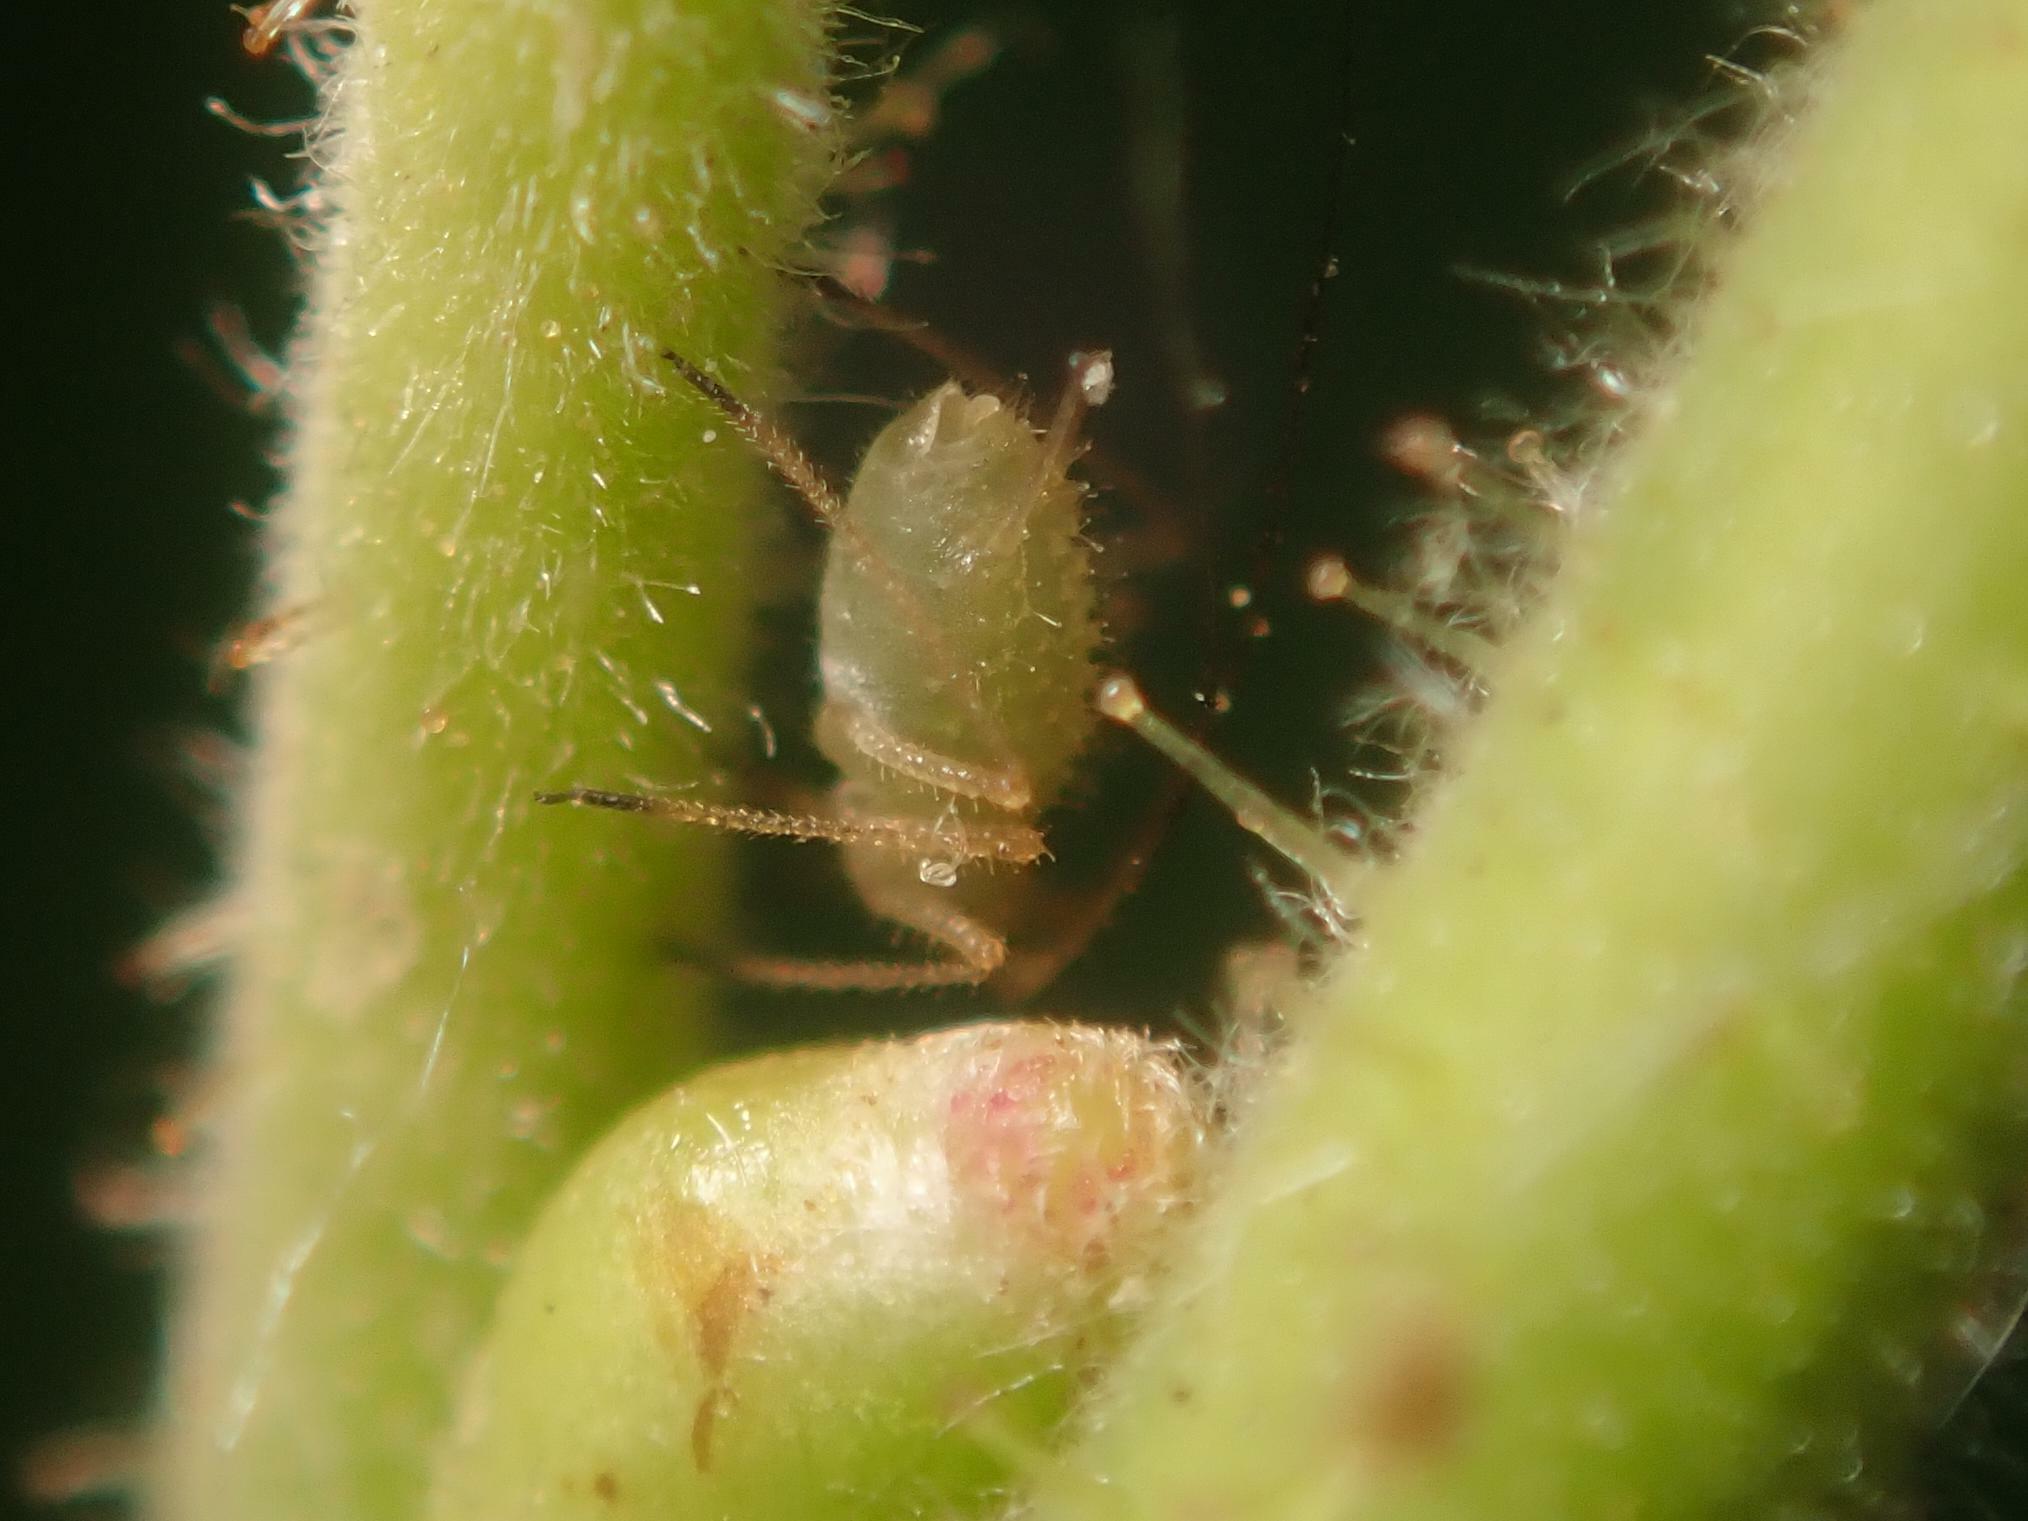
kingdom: Animalia
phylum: Arthropoda
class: Insecta
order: Hemiptera
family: Aphididae
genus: Corylobium
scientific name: Corylobium avellanae
